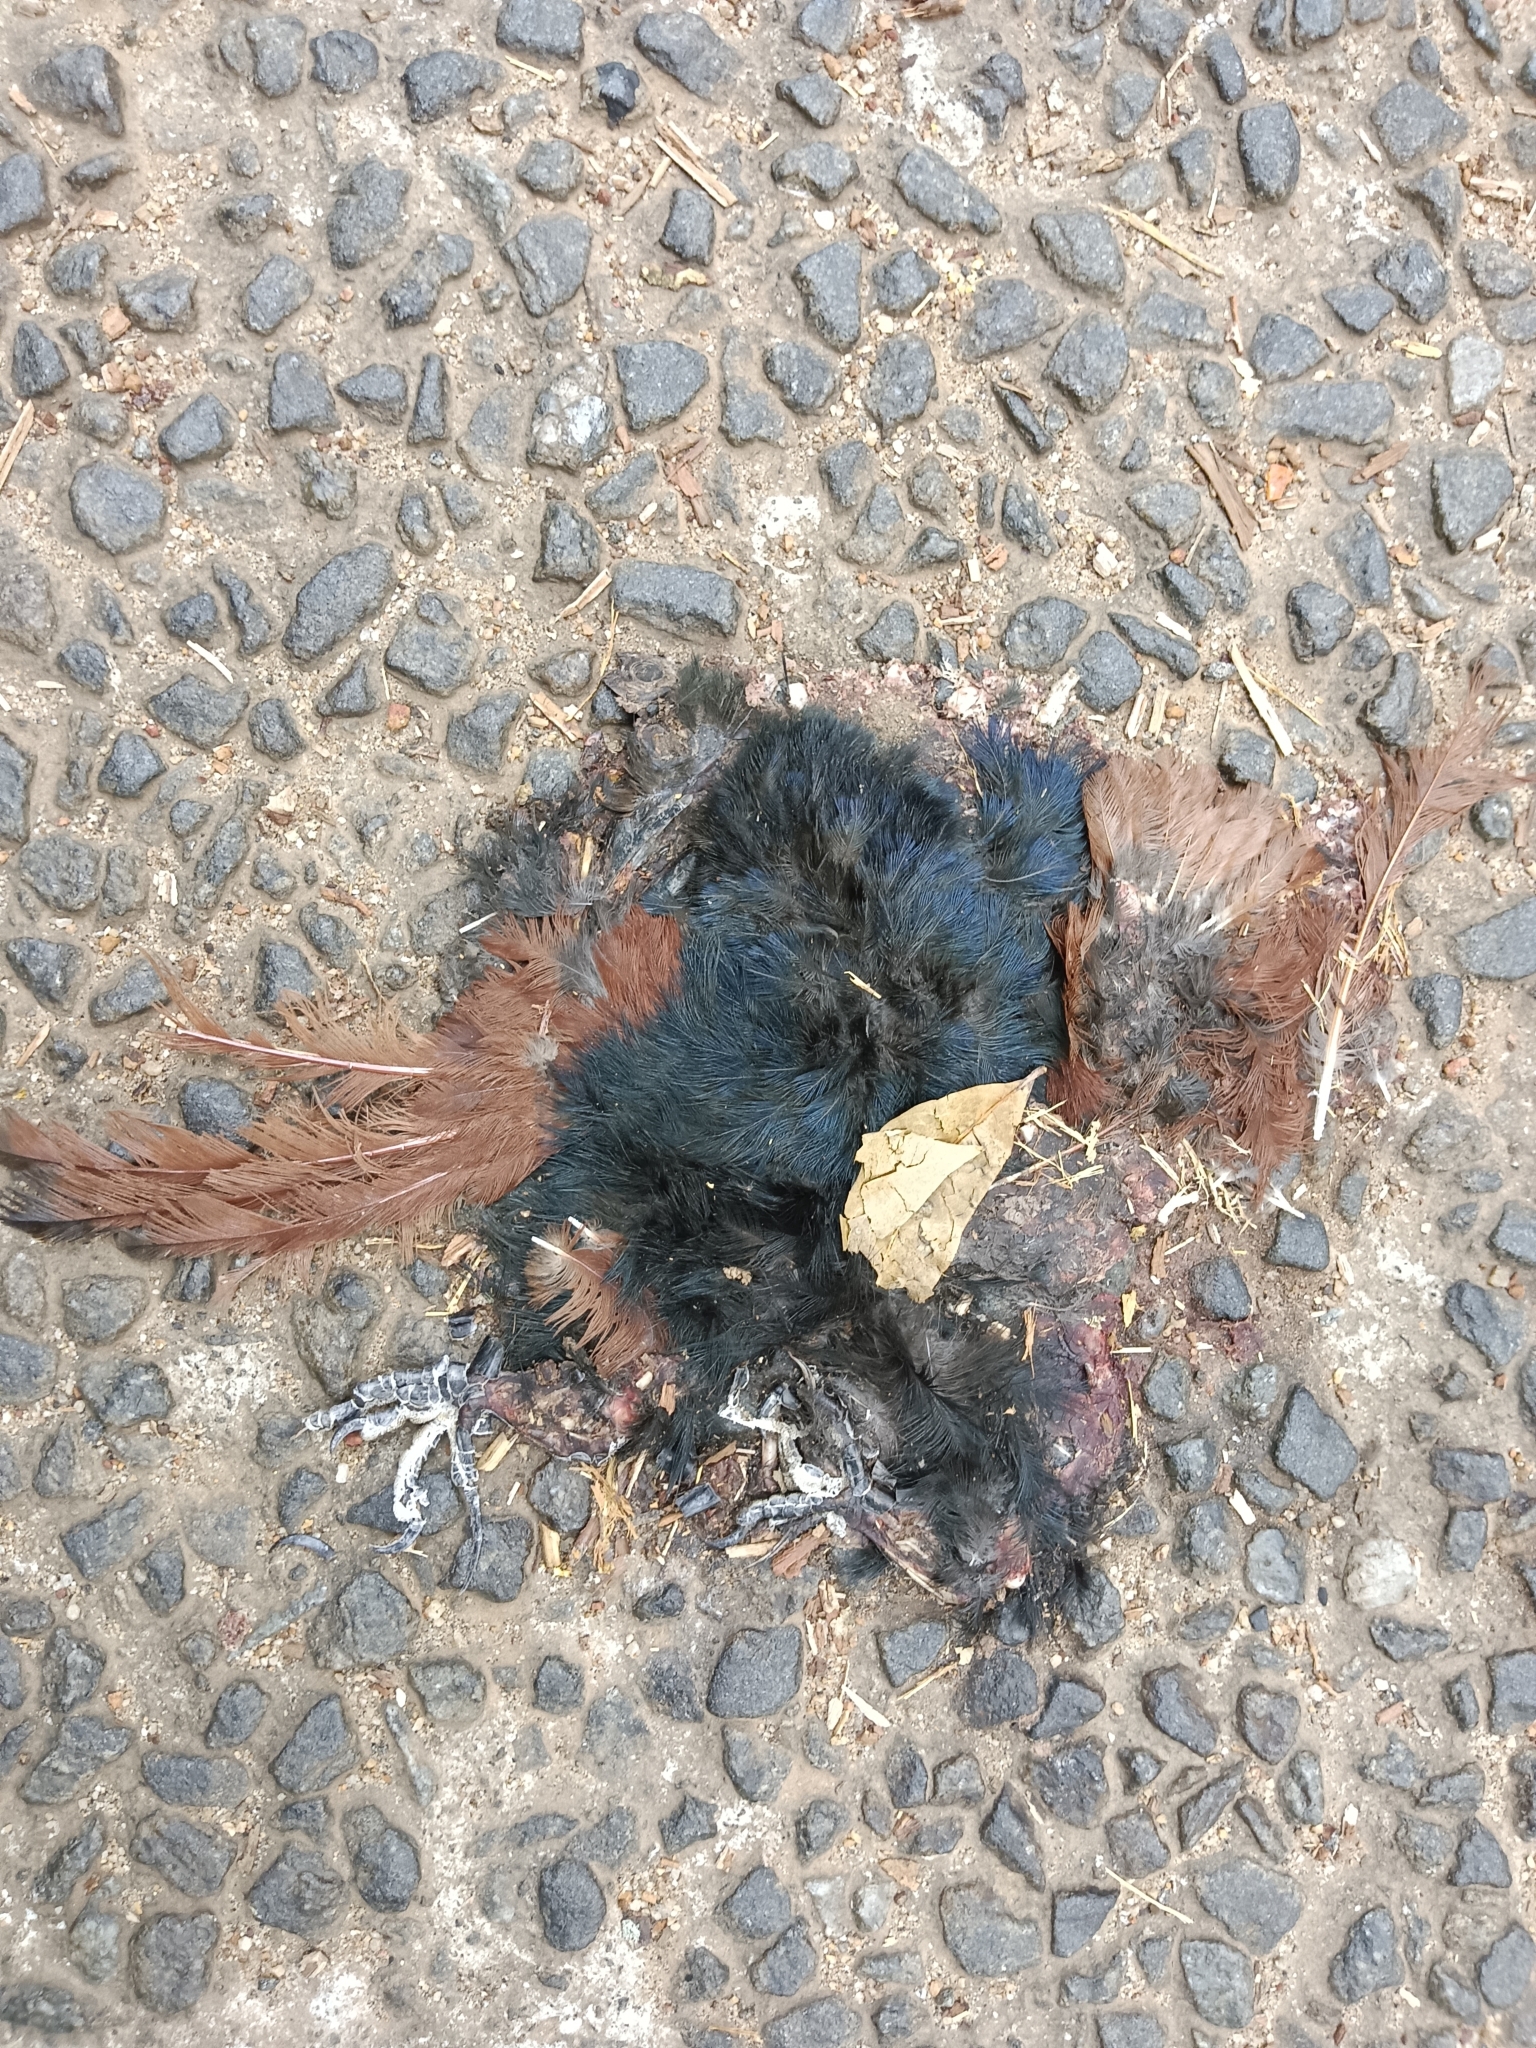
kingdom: Animalia
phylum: Chordata
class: Aves
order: Cuculiformes
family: Cuculidae
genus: Centropus
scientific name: Centropus sinensis
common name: Greater coucal
